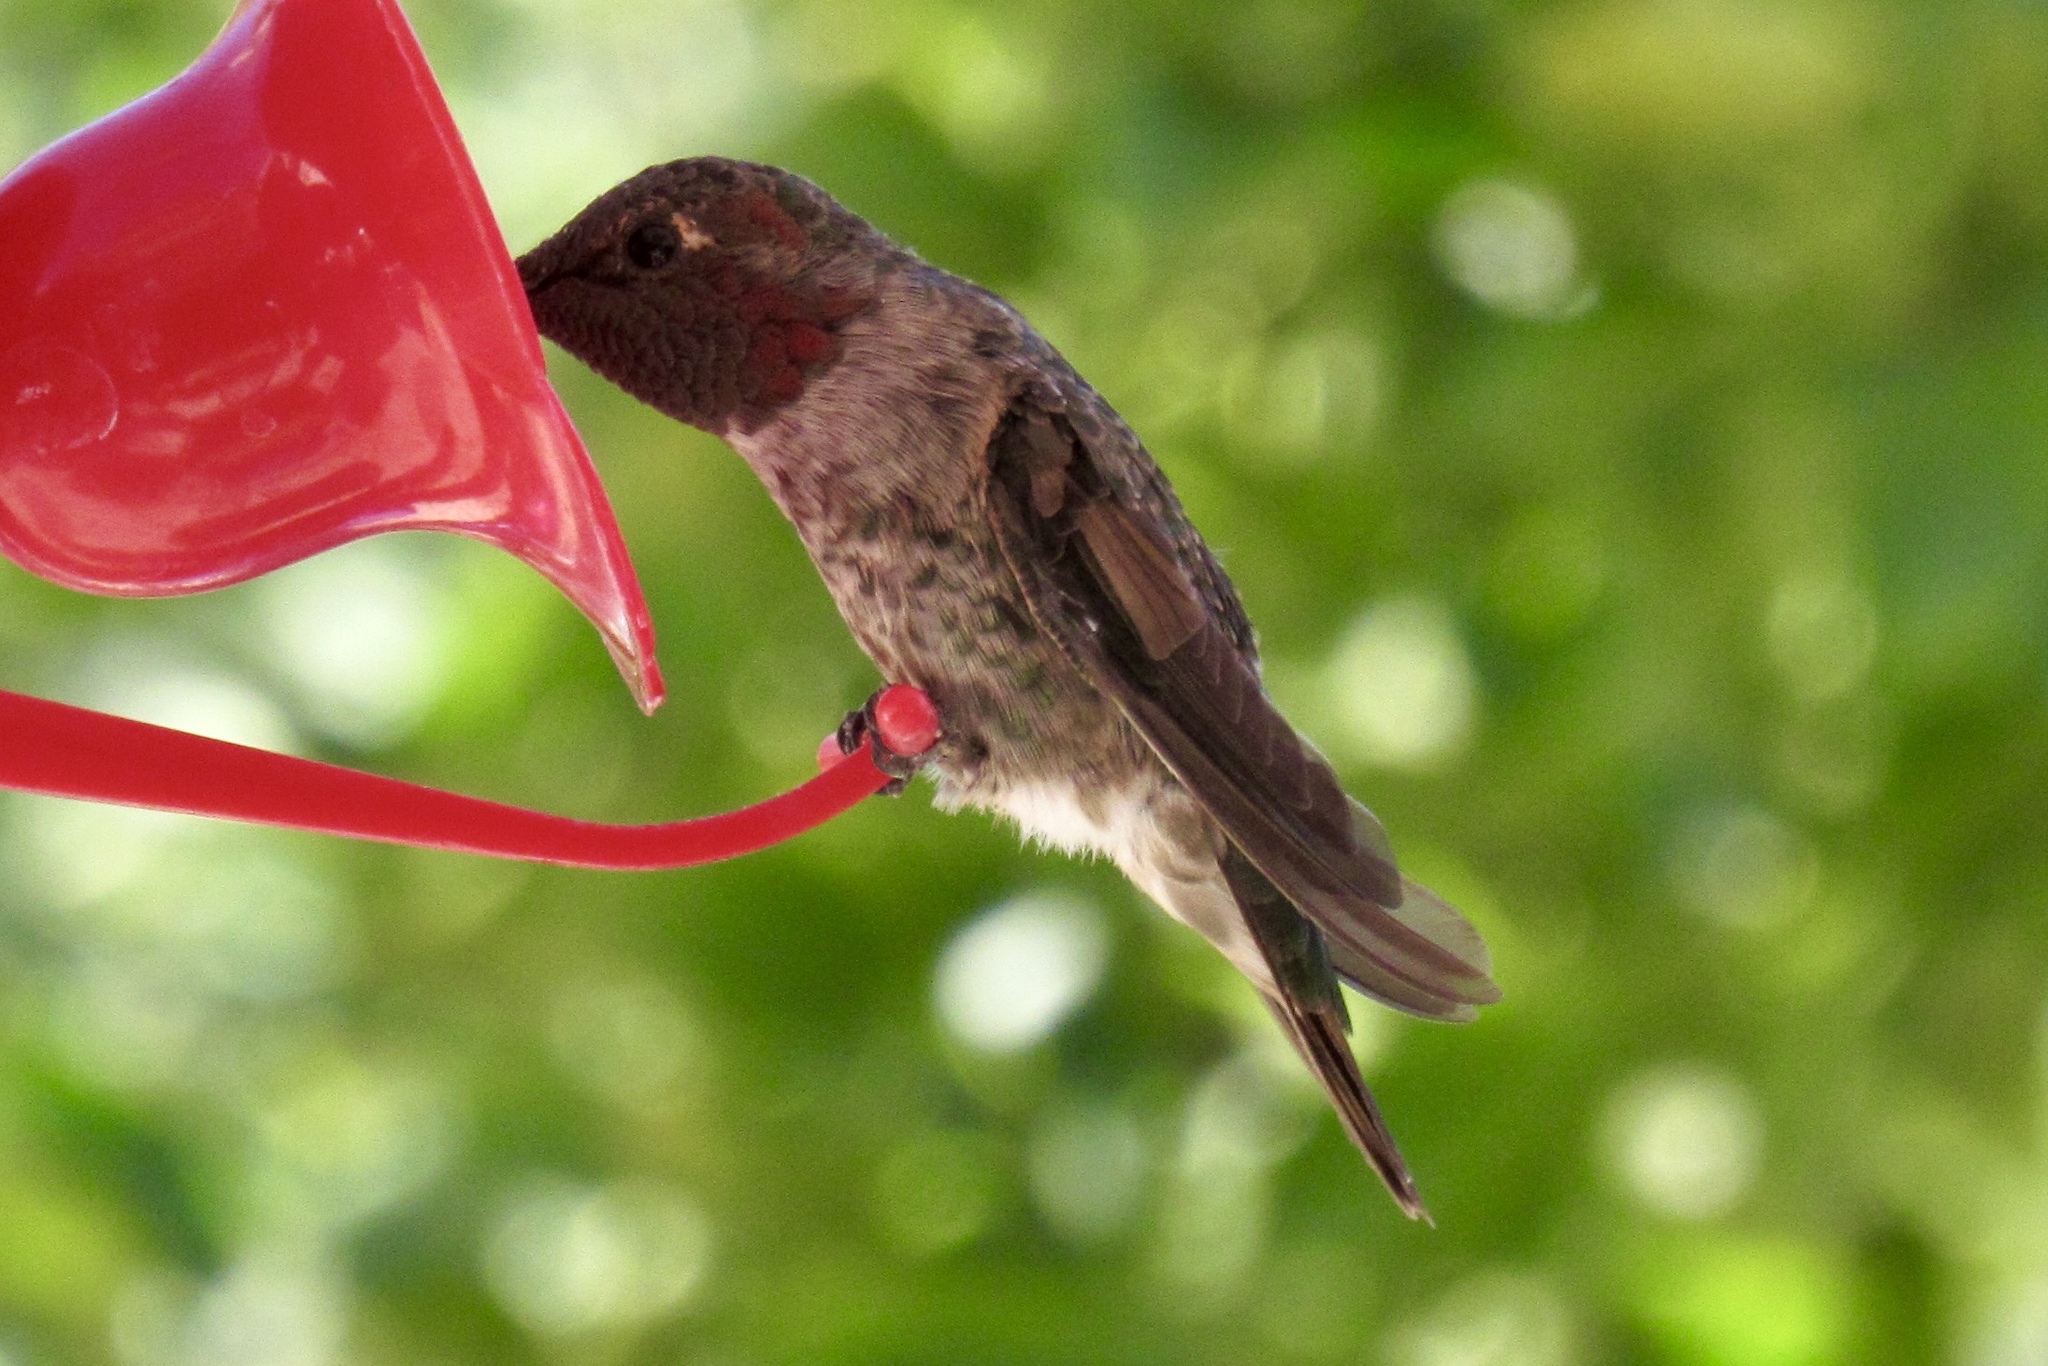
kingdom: Animalia
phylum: Chordata
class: Aves
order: Apodiformes
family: Trochilidae
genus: Calypte
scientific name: Calypte anna
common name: Anna's hummingbird
